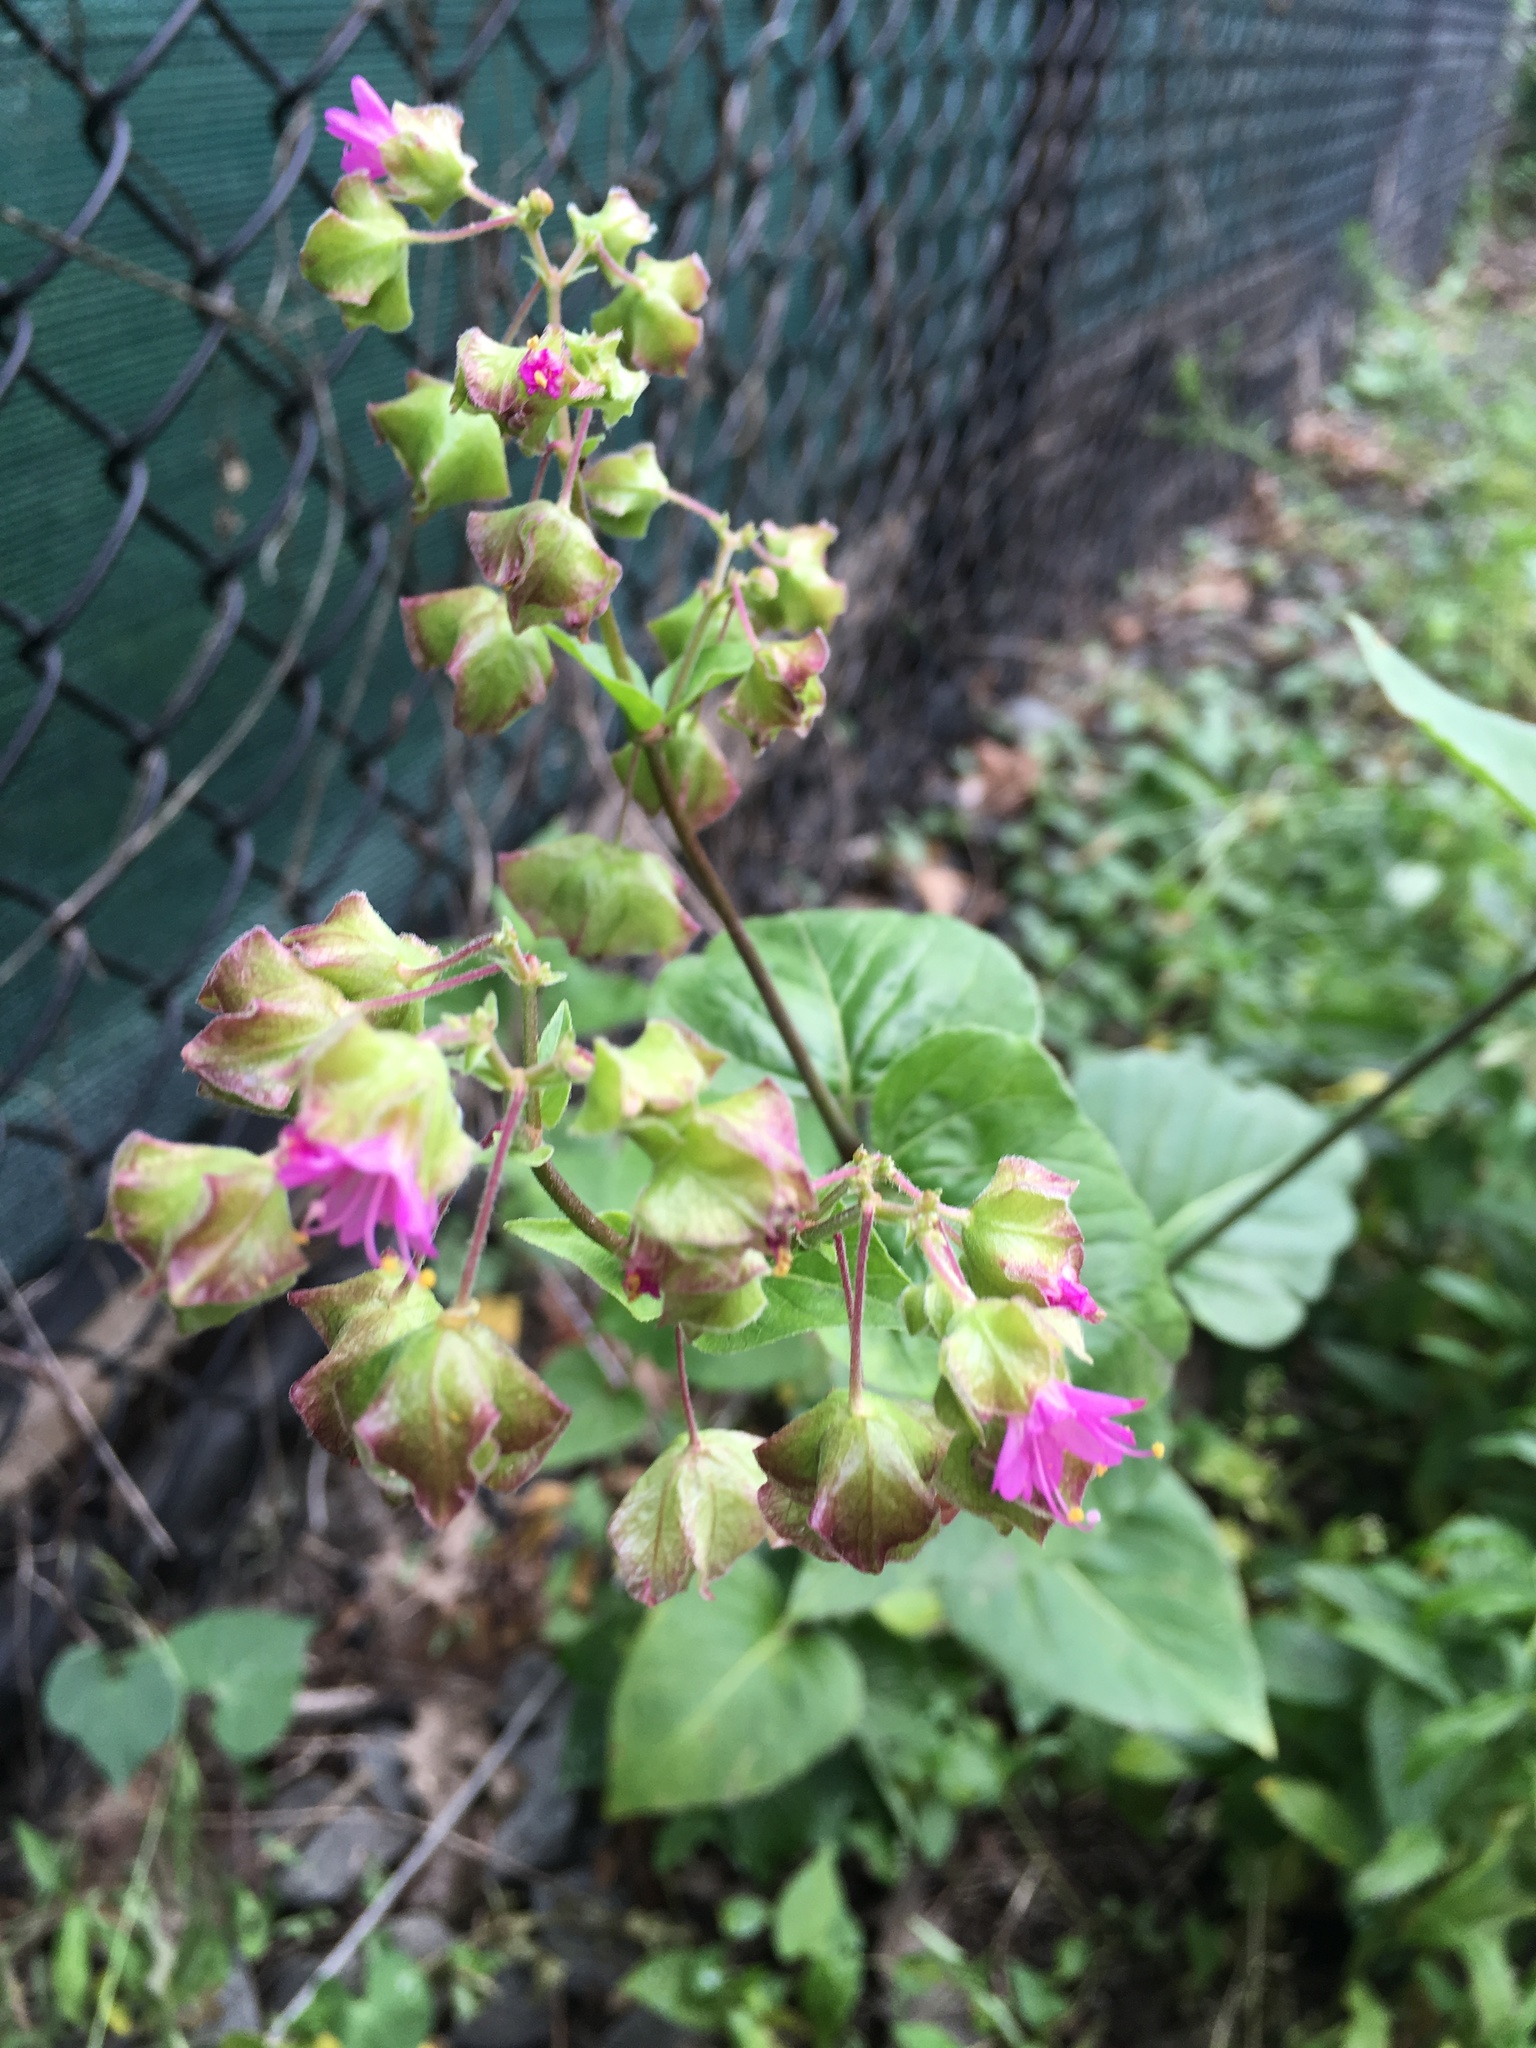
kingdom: Plantae
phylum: Tracheophyta
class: Magnoliopsida
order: Caryophyllales
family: Nyctaginaceae
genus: Mirabilis
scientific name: Mirabilis nyctaginea
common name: Umbrella wort
